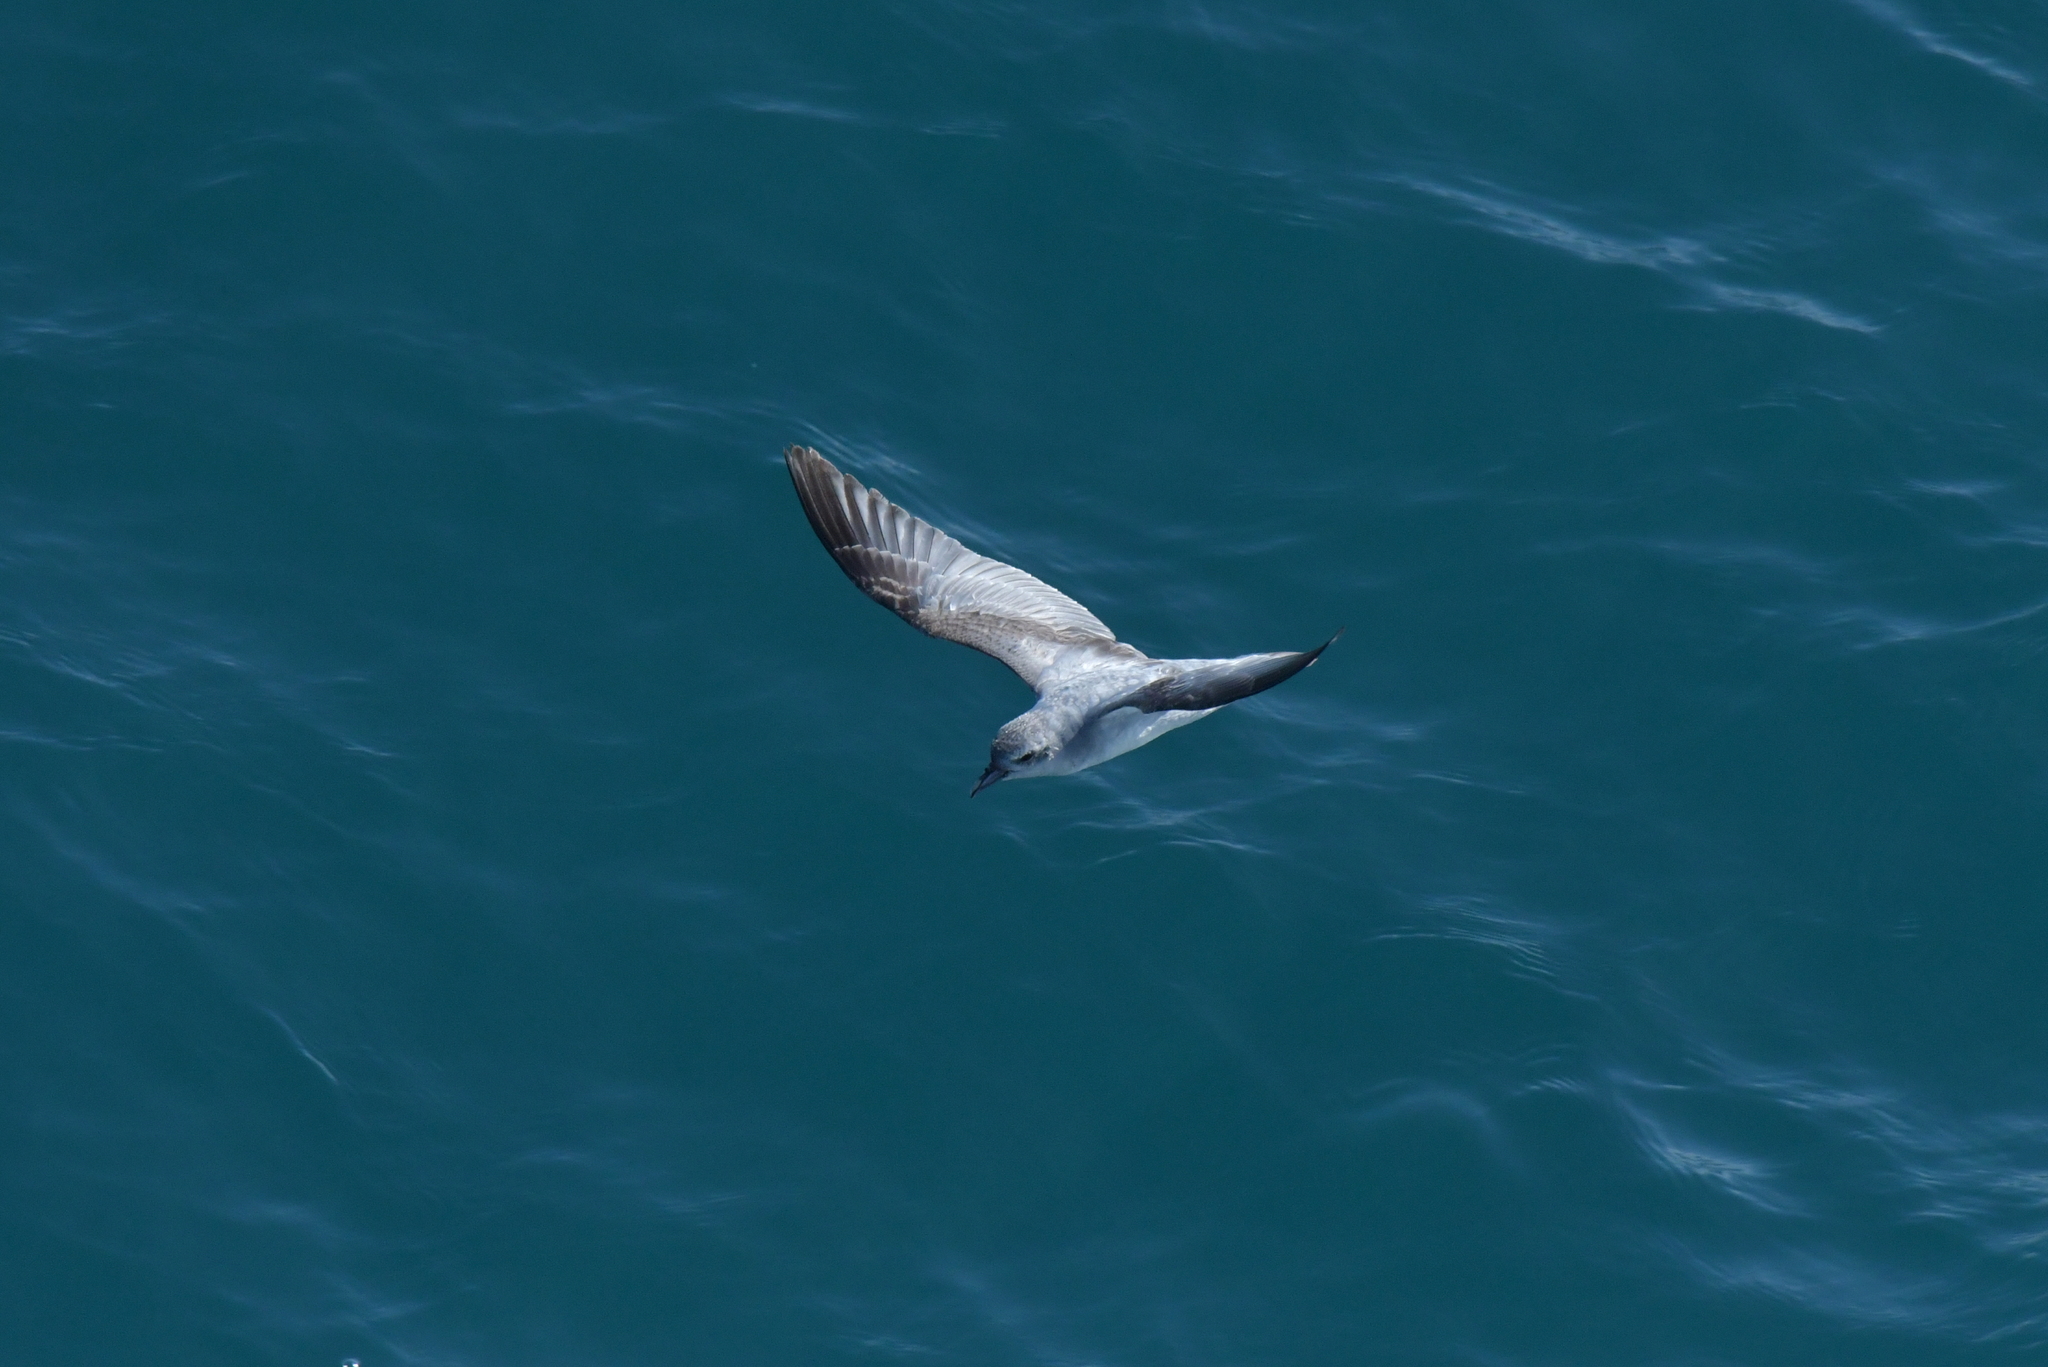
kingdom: Animalia
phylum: Chordata
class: Aves
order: Procellariiformes
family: Procellariidae
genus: Pachyptila
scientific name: Pachyptila turtur
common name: Fairy prion
